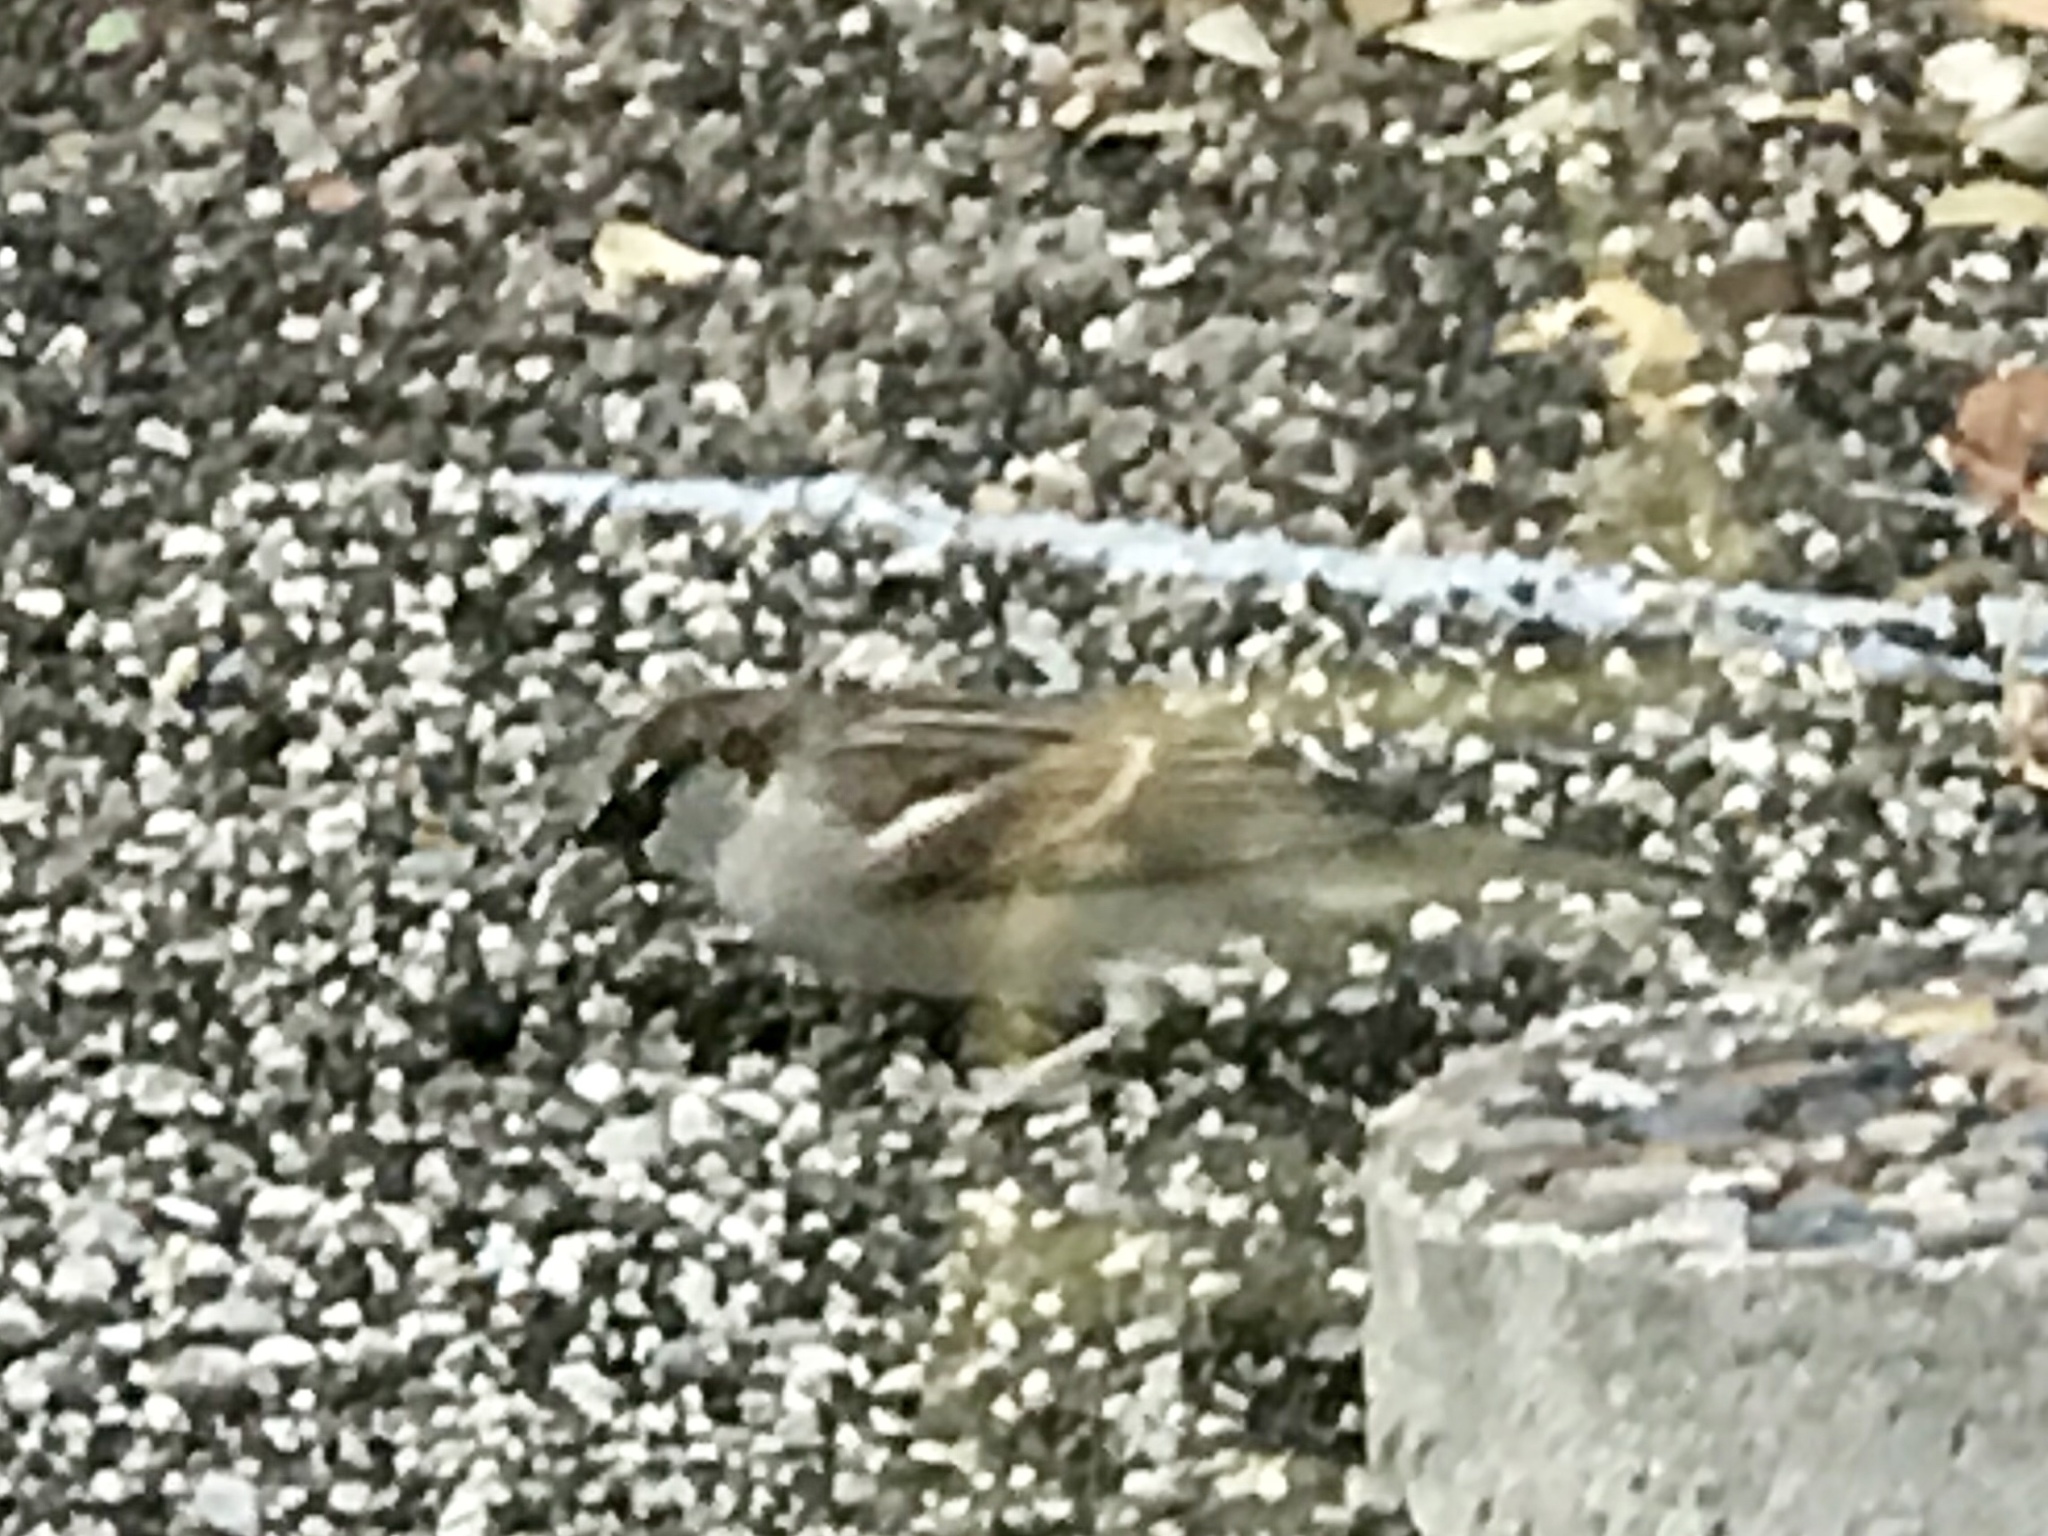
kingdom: Animalia
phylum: Chordata
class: Aves
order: Passeriformes
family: Passeridae
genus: Passer
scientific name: Passer domesticus
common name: House sparrow
